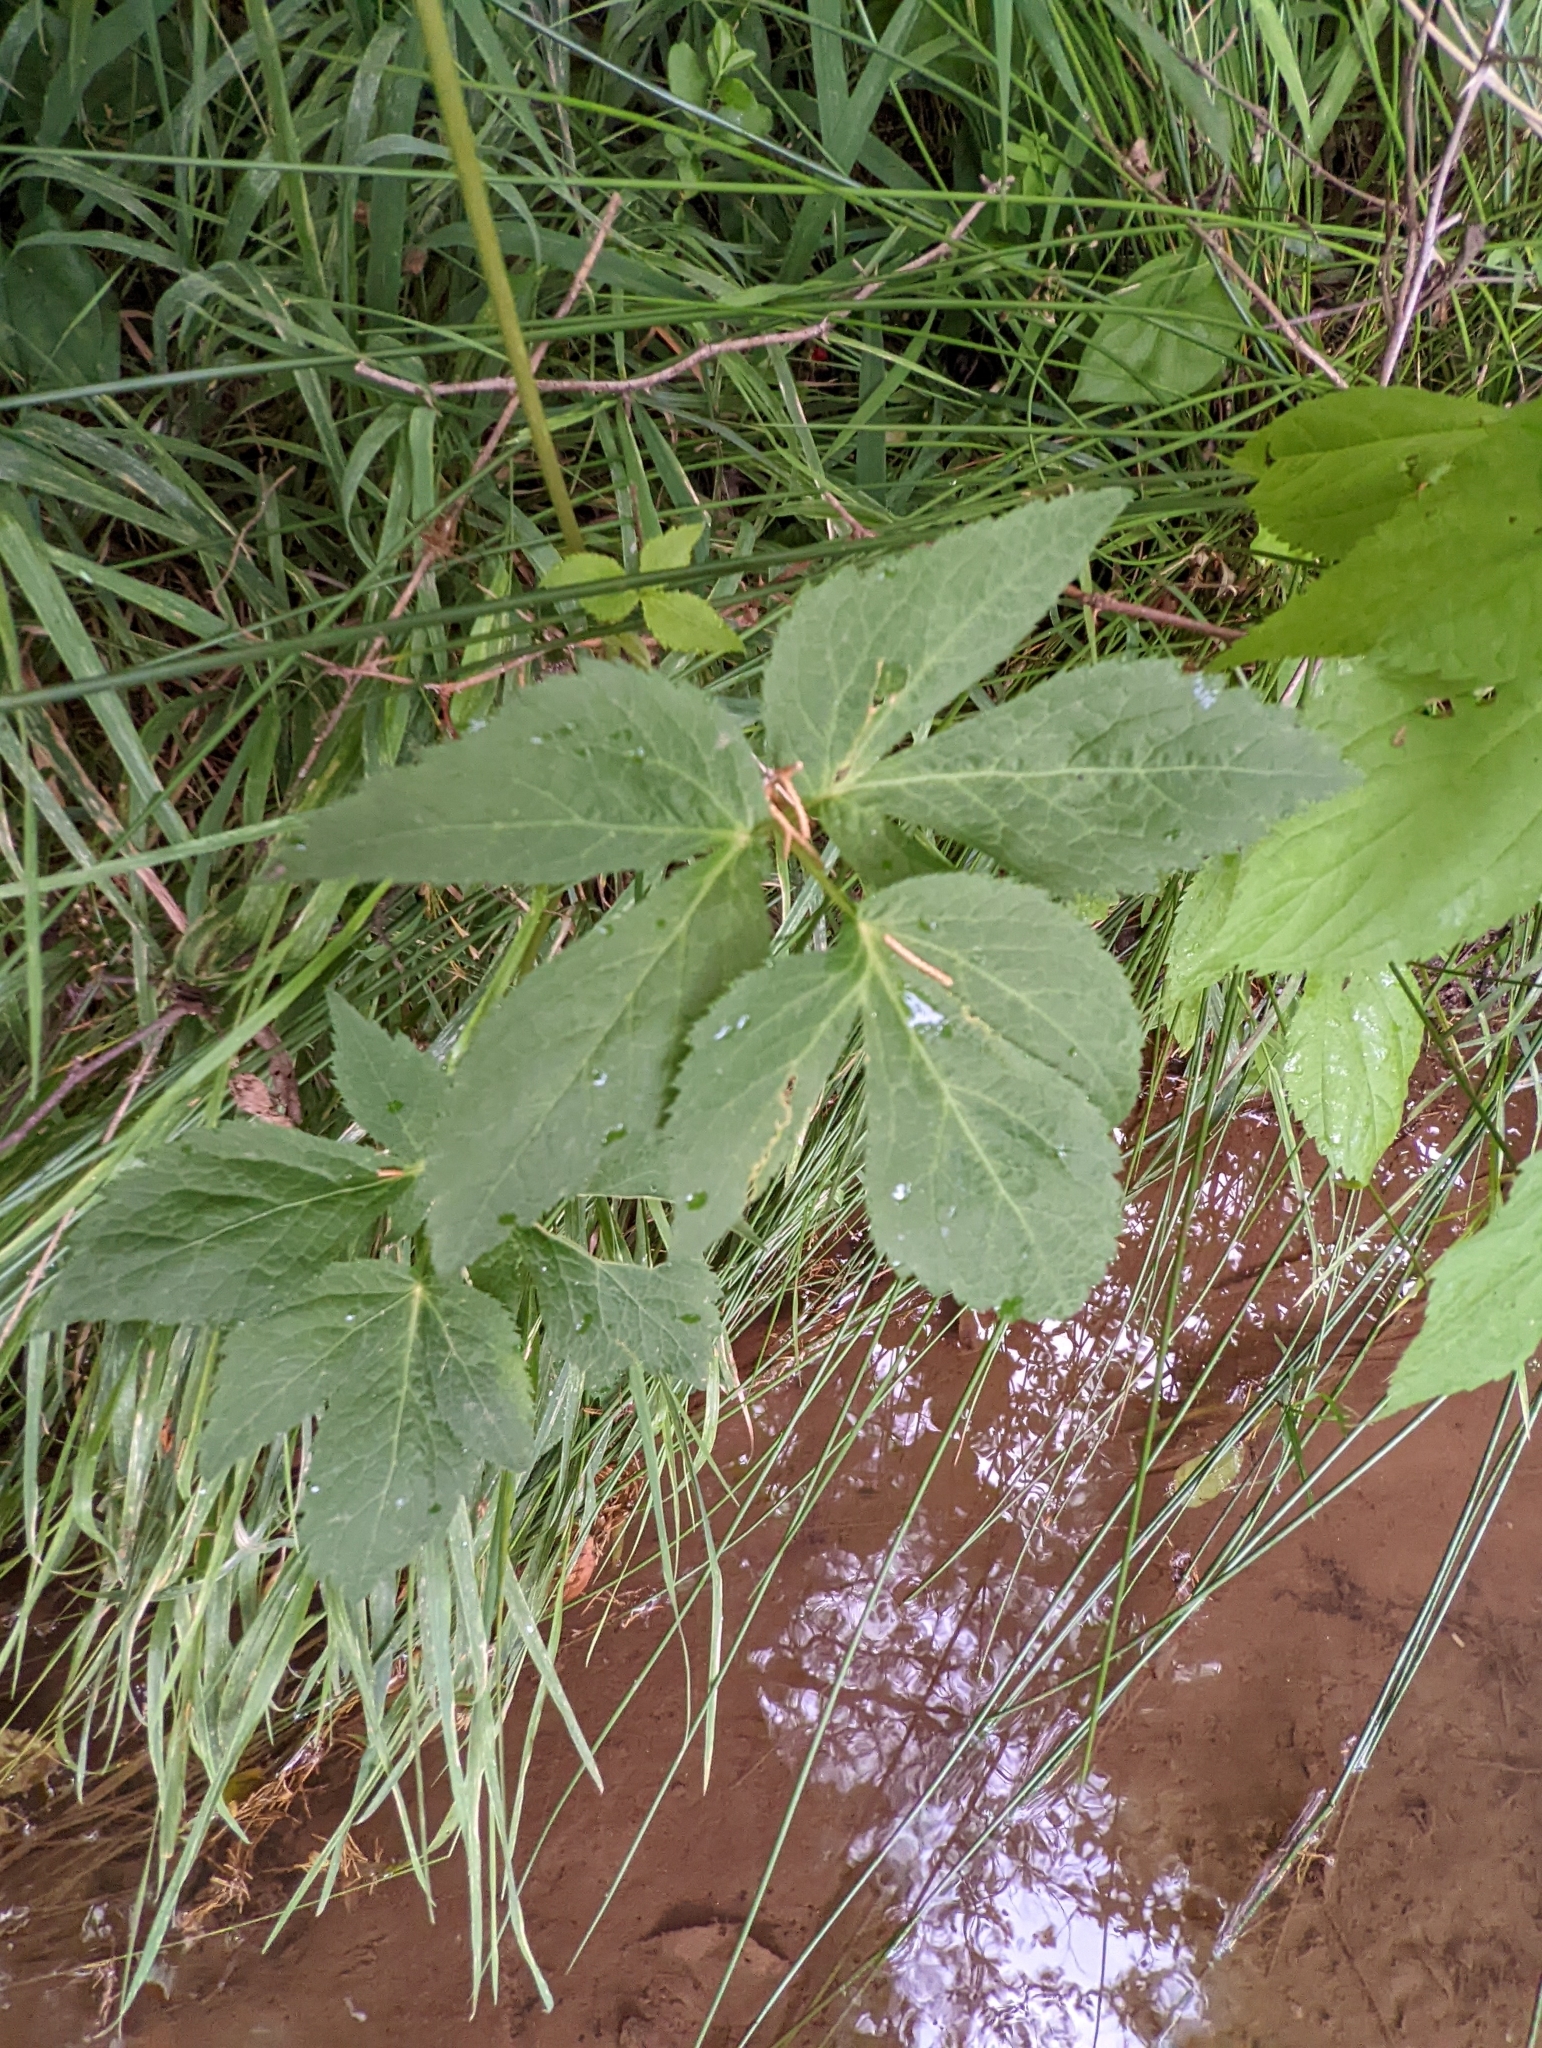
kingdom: Plantae
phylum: Tracheophyta
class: Magnoliopsida
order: Apiales
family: Apiaceae
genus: Cryptotaenia
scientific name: Cryptotaenia canadensis
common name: Honewort
